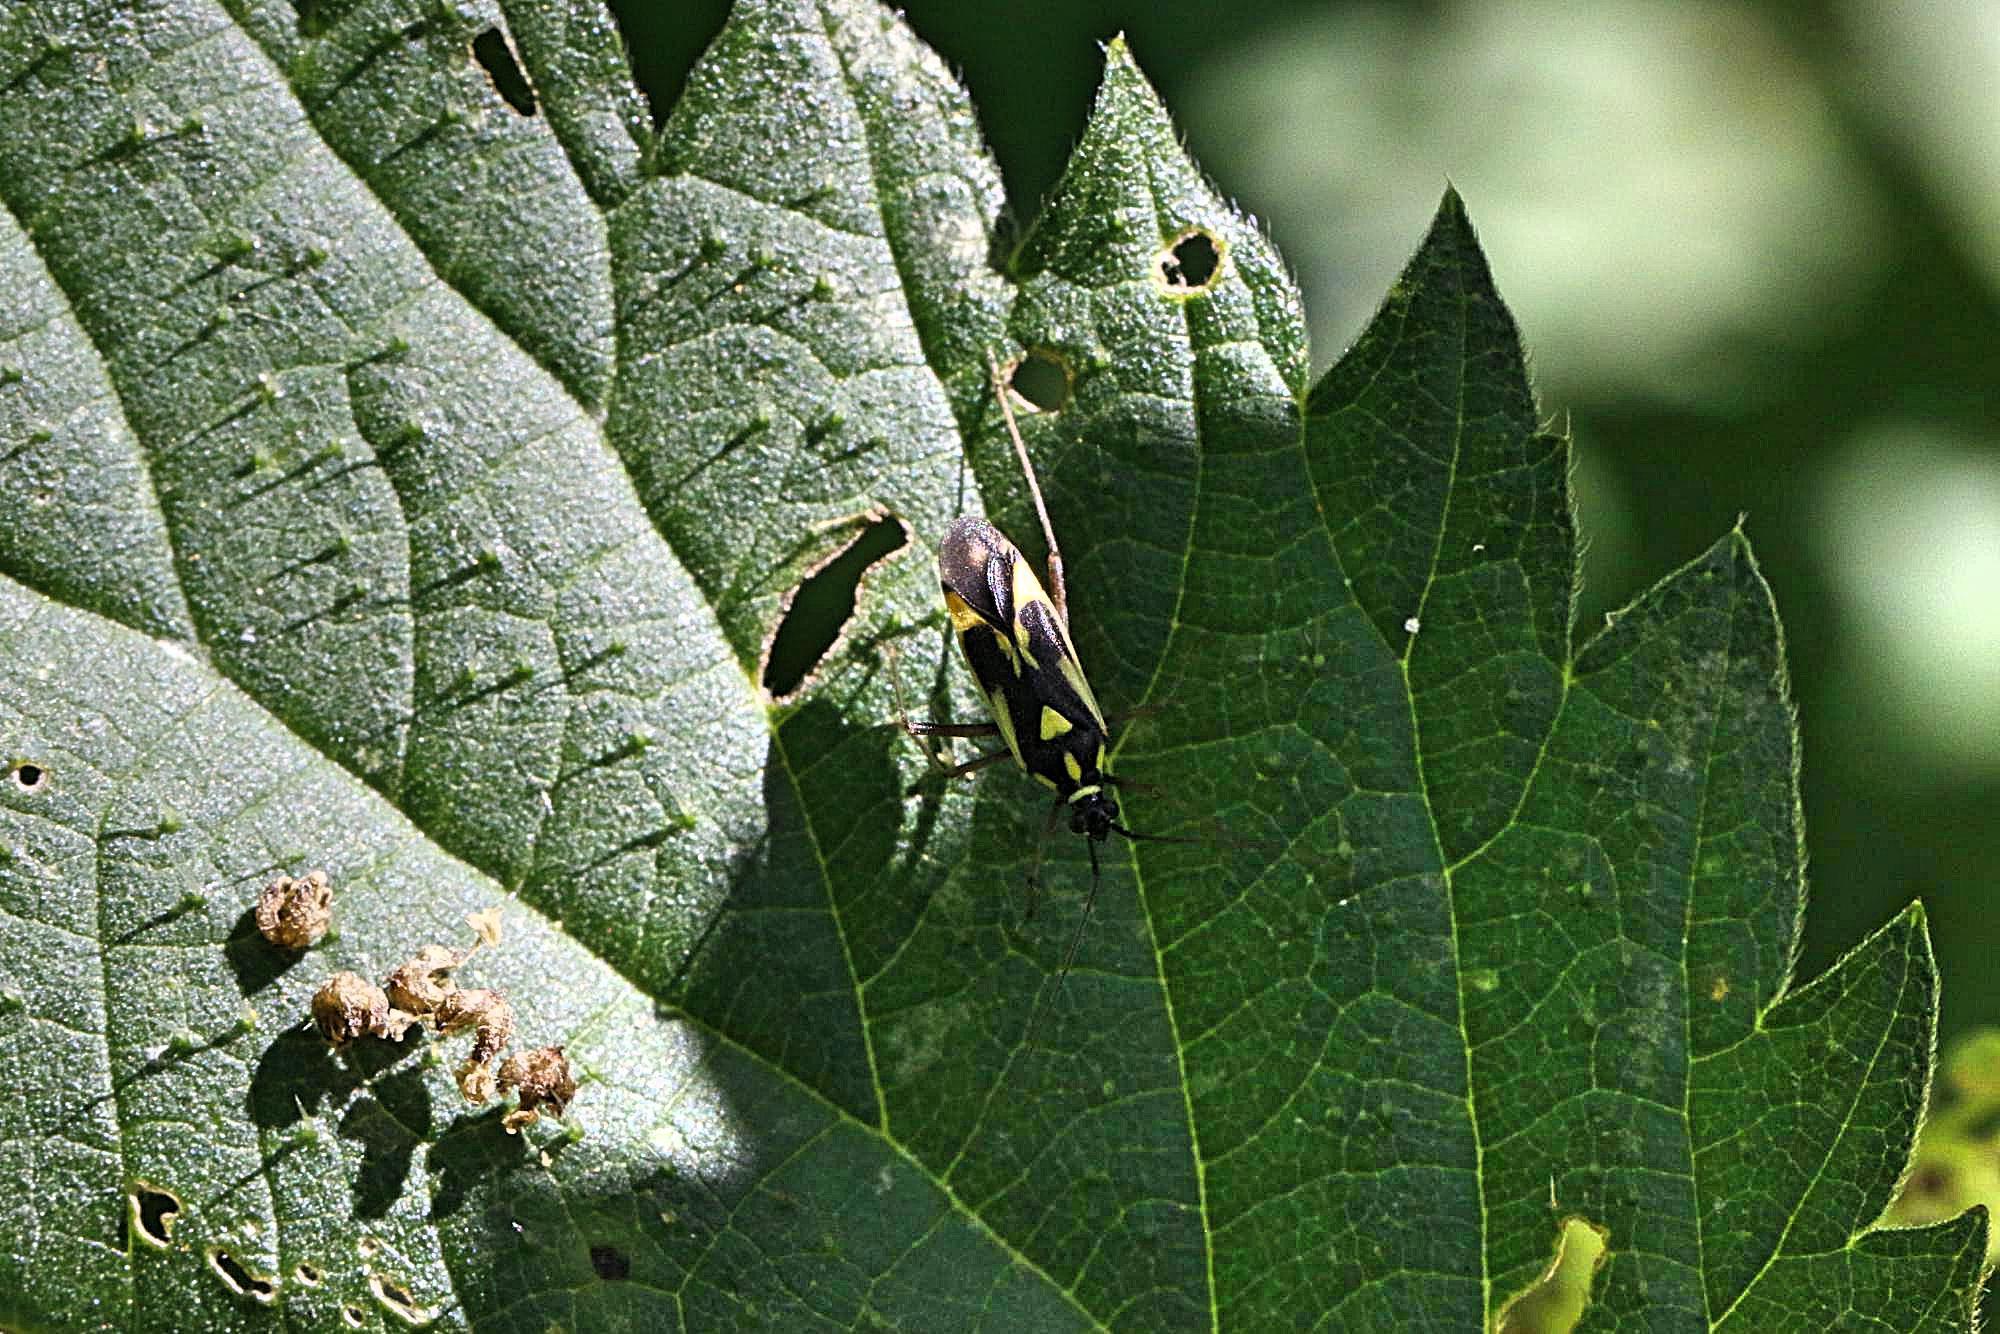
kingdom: Animalia
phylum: Arthropoda
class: Insecta
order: Hemiptera
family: Miridae
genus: Grypocoris
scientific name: Grypocoris stysi
